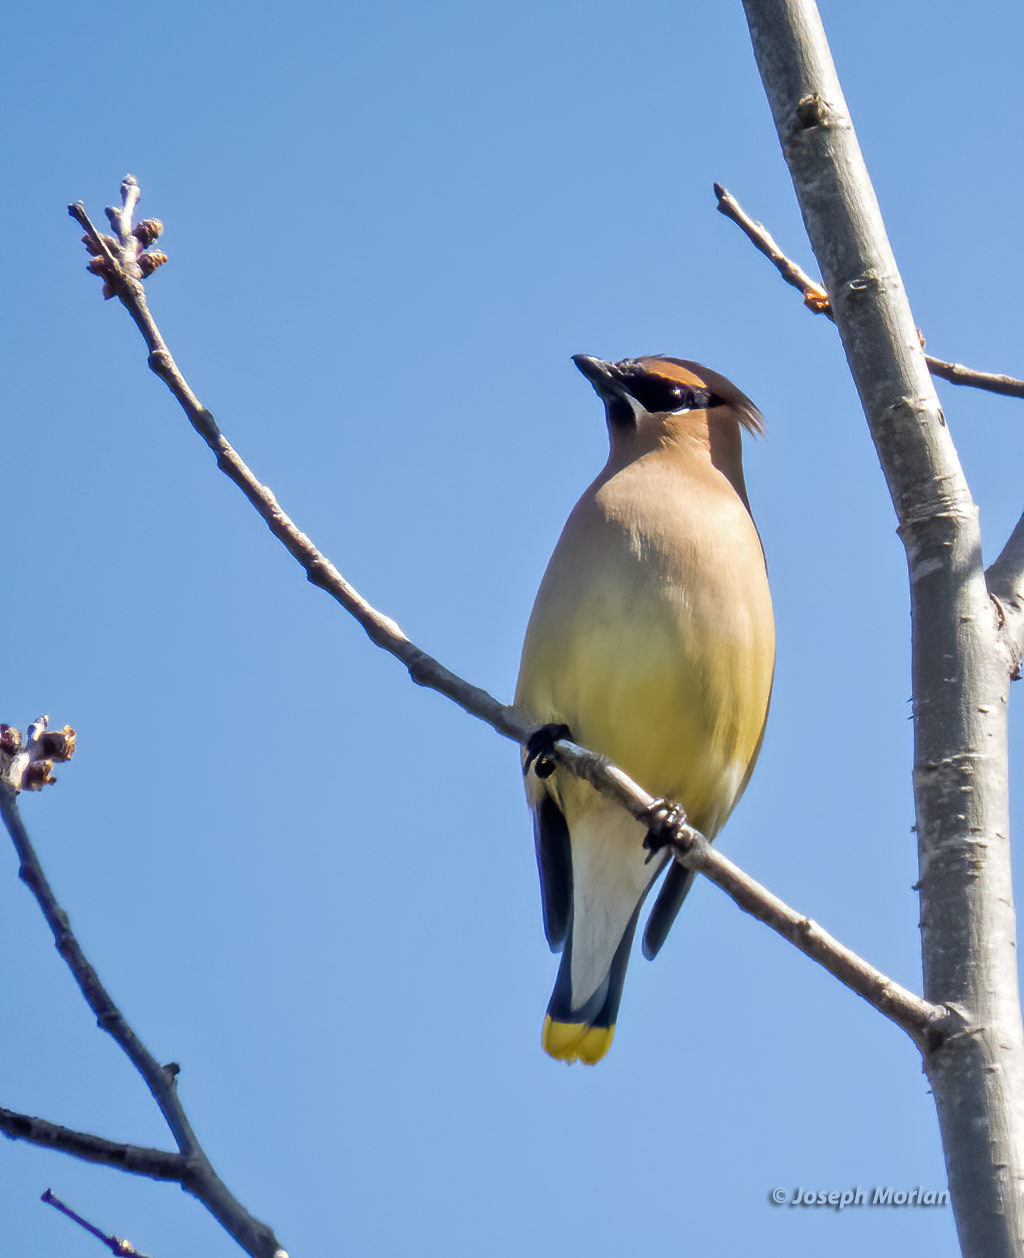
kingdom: Animalia
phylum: Chordata
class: Aves
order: Passeriformes
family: Bombycillidae
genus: Bombycilla
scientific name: Bombycilla cedrorum
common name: Cedar waxwing
